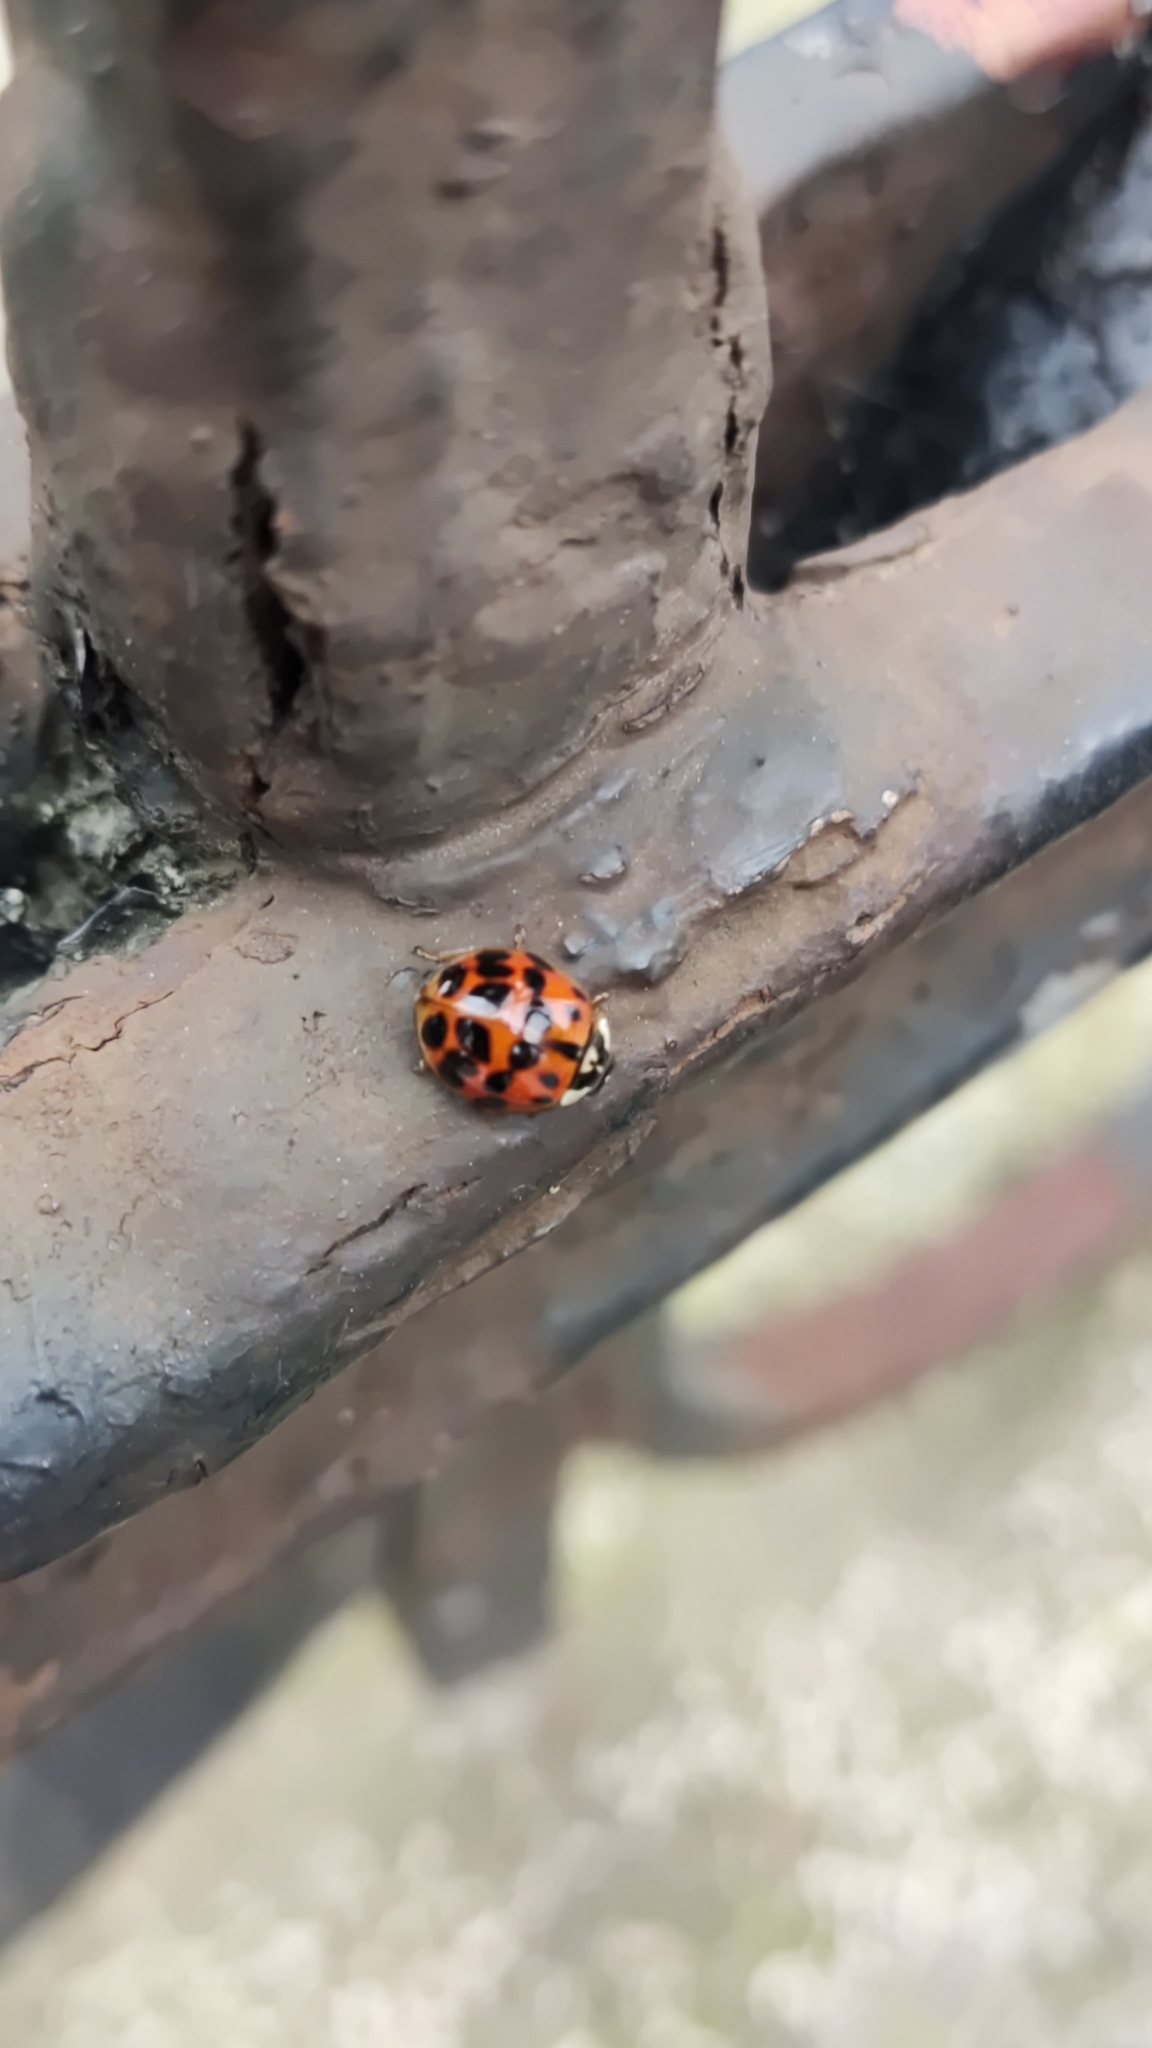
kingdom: Animalia
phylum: Arthropoda
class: Insecta
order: Coleoptera
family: Coccinellidae
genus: Harmonia
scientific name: Harmonia axyridis
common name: Harlequin ladybird
